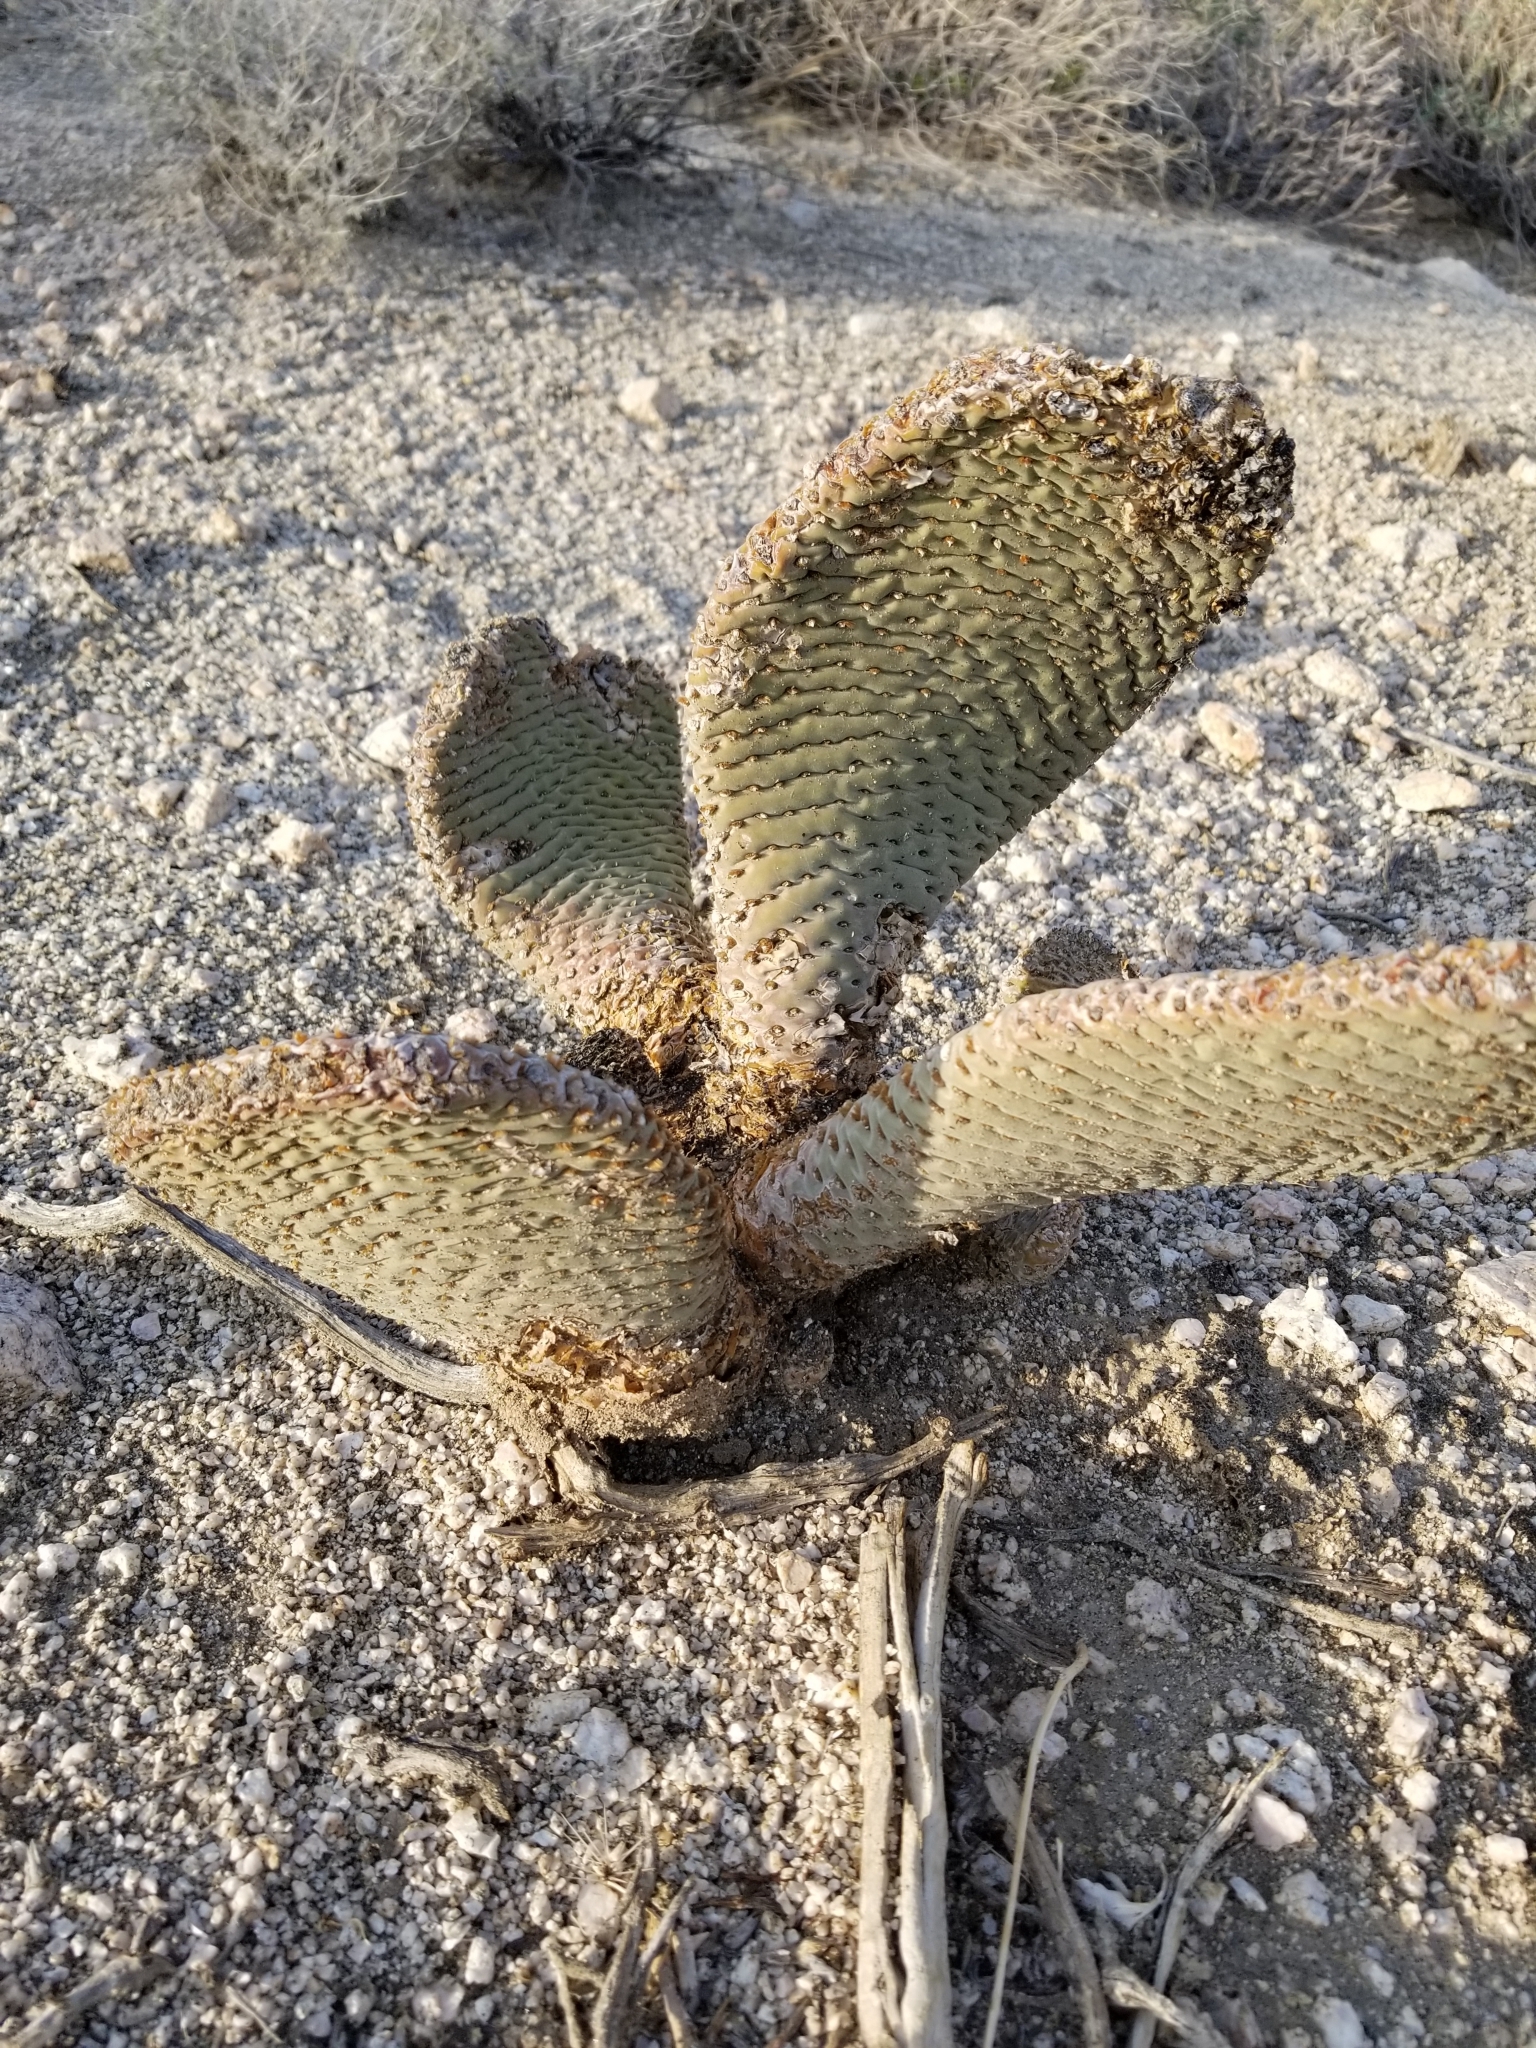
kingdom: Plantae
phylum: Tracheophyta
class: Magnoliopsida
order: Caryophyllales
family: Cactaceae
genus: Opuntia
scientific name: Opuntia basilaris
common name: Beavertail prickly-pear
